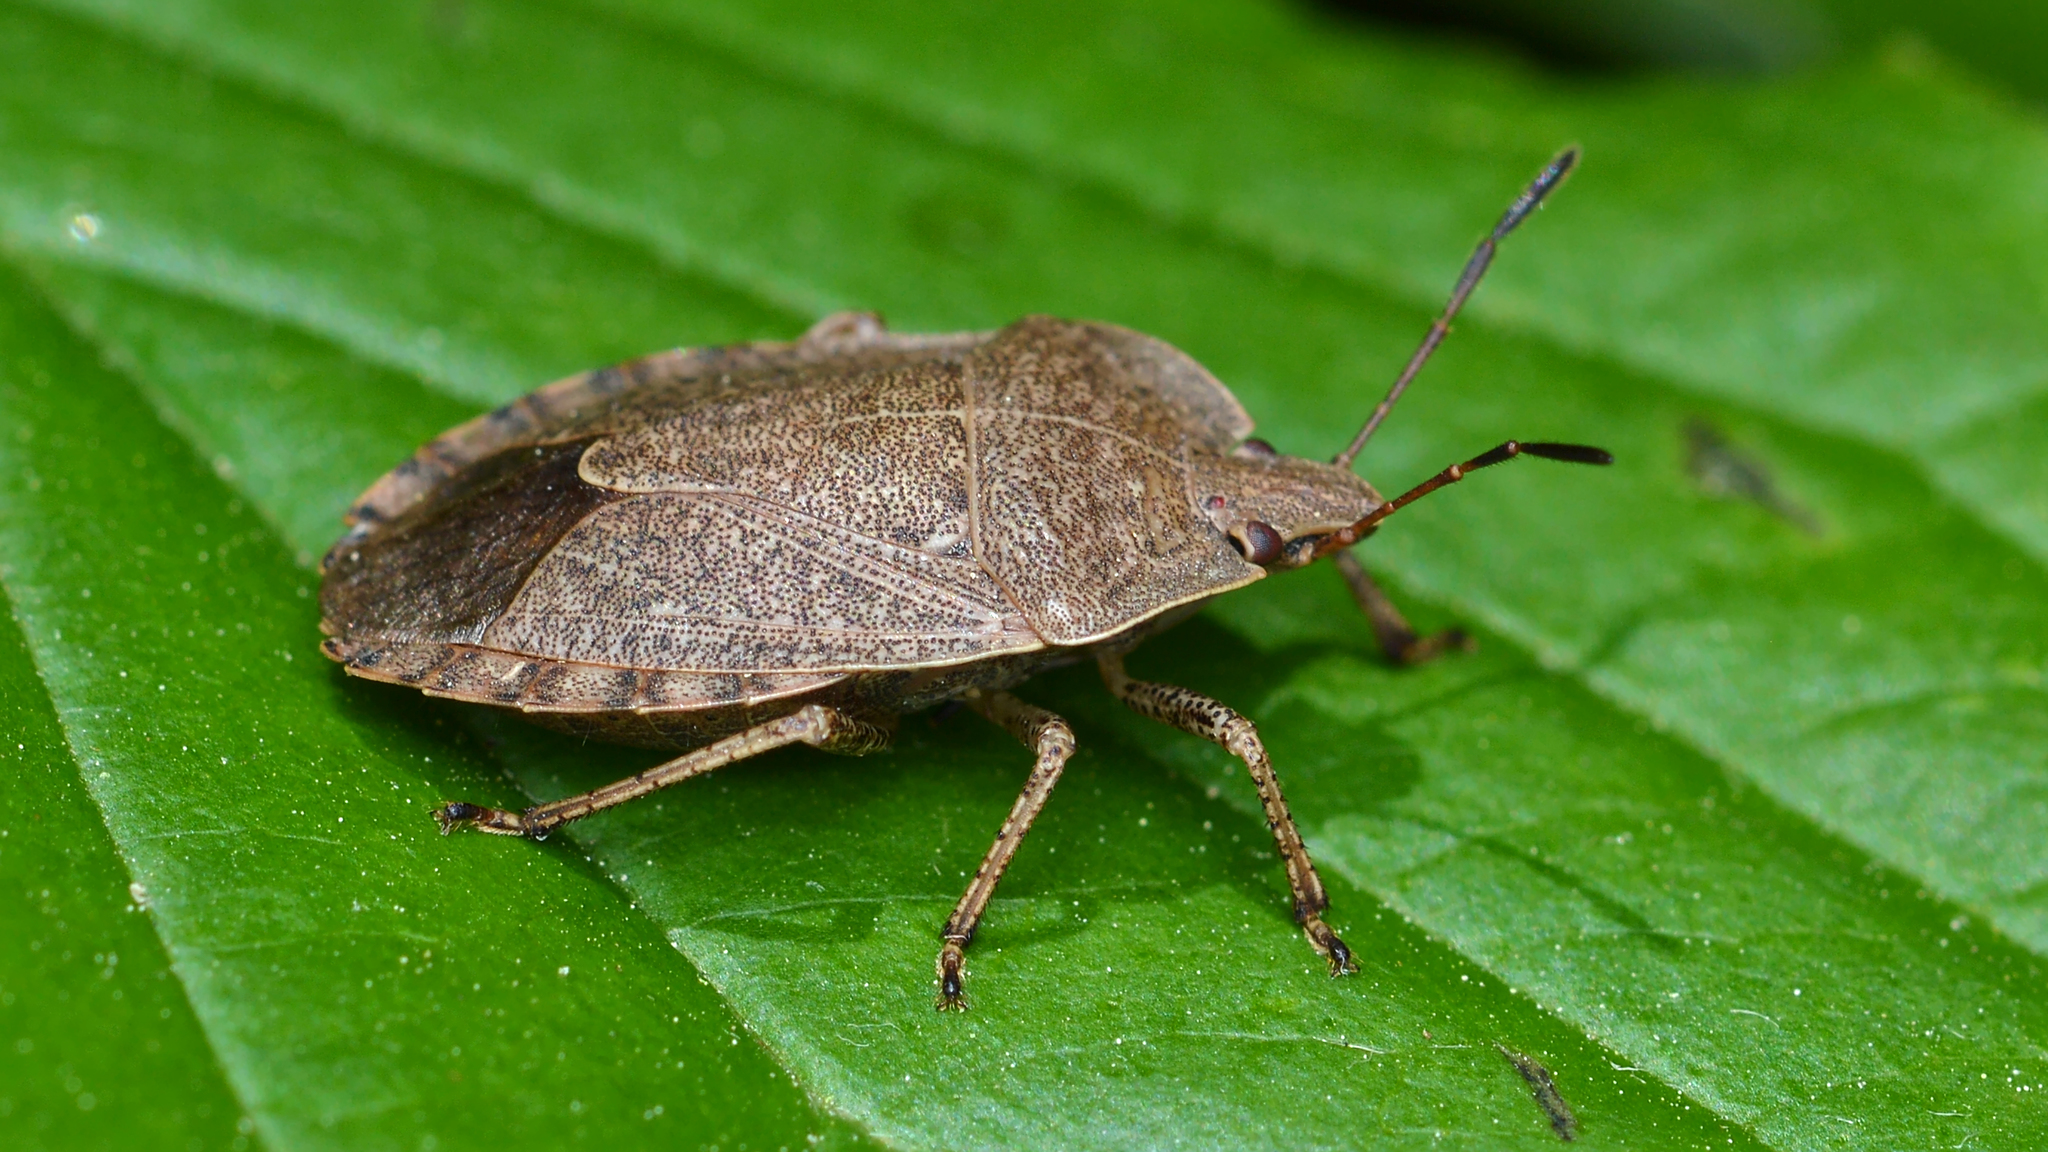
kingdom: Animalia
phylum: Arthropoda
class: Insecta
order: Hemiptera
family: Pentatomidae
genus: Menecles
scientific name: Menecles insertus
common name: Elf shoe stink bug
